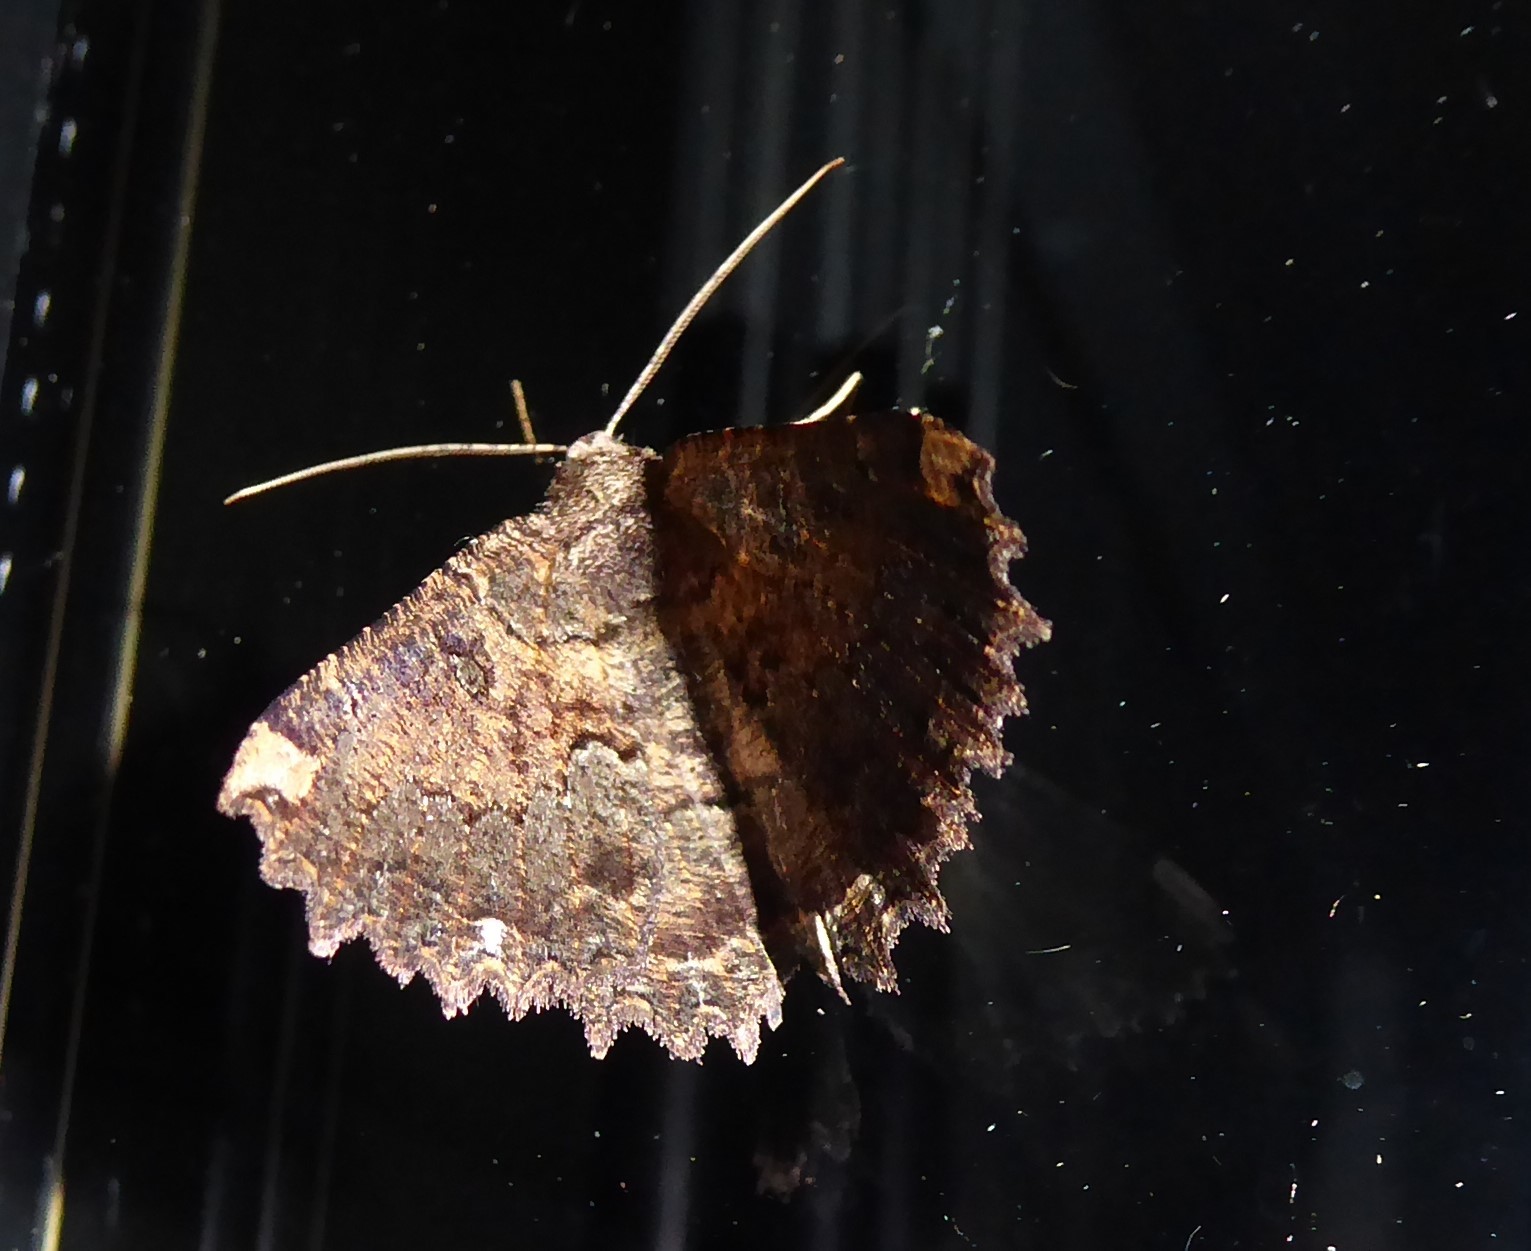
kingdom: Animalia
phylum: Arthropoda
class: Insecta
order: Lepidoptera
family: Geometridae
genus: Gellonia
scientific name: Gellonia dejectaria
